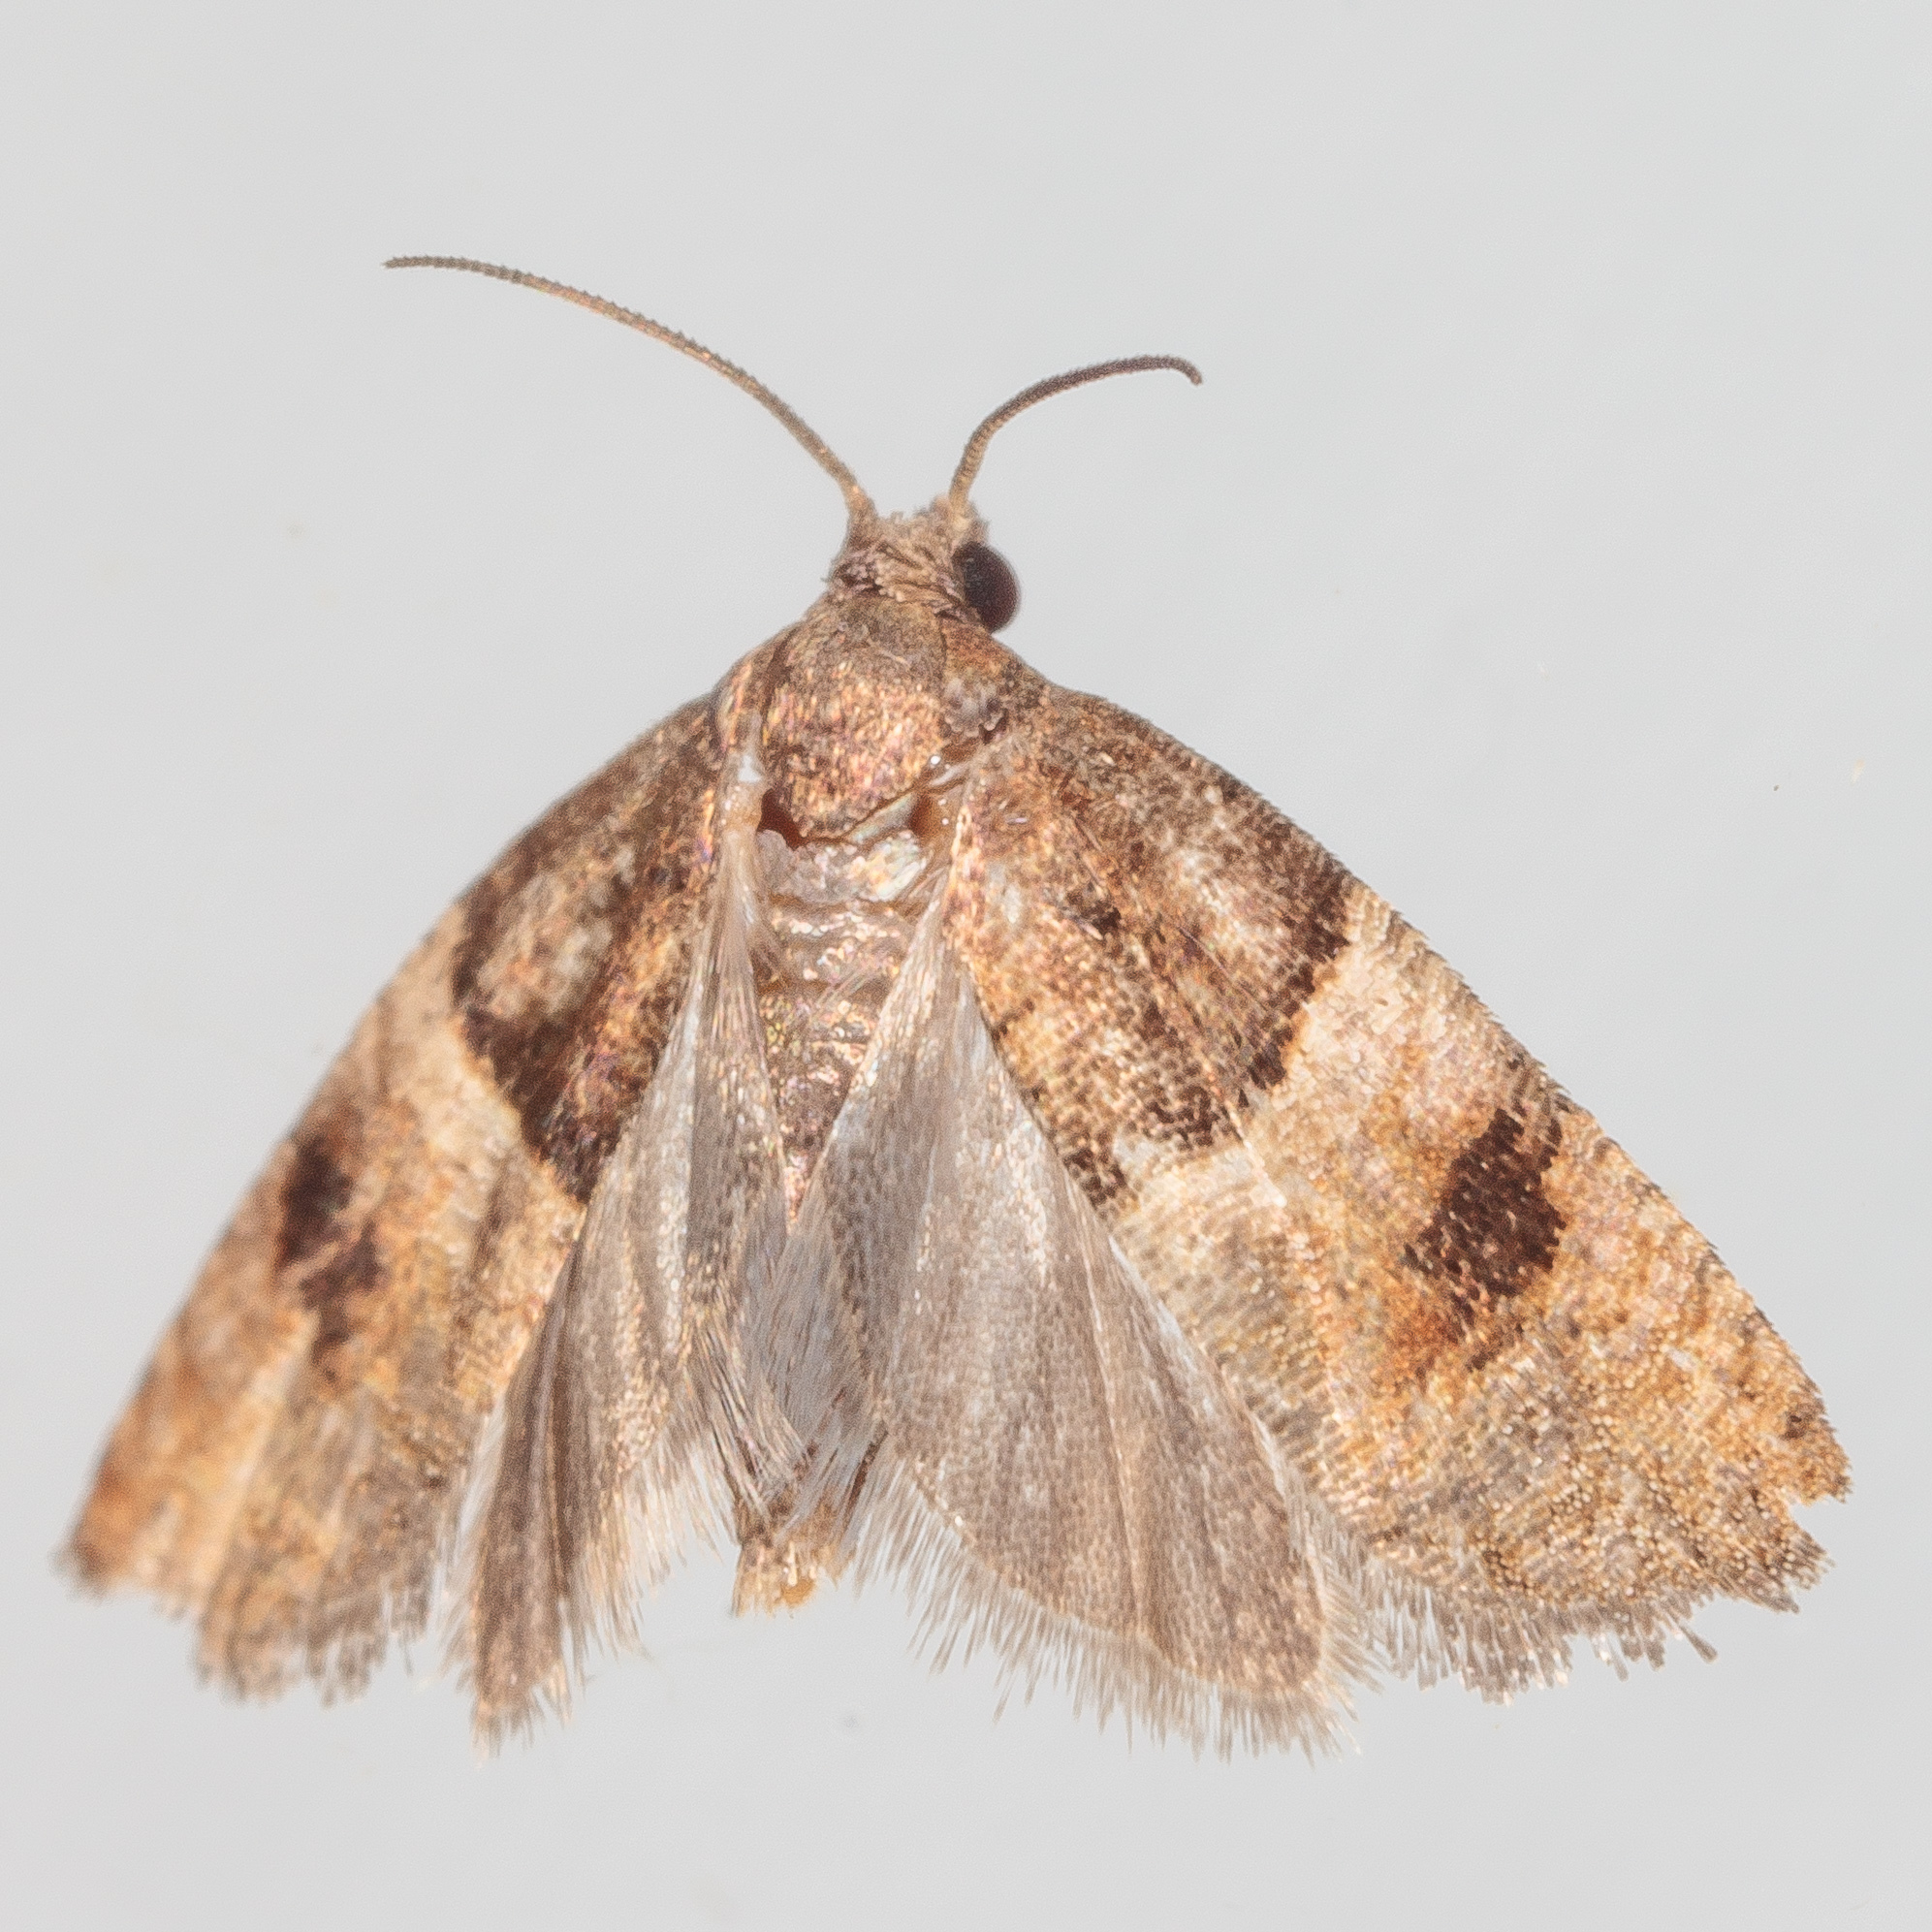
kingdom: Animalia
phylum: Arthropoda
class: Insecta
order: Lepidoptera
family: Tortricidae
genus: Larisa
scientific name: Larisa subsolana
